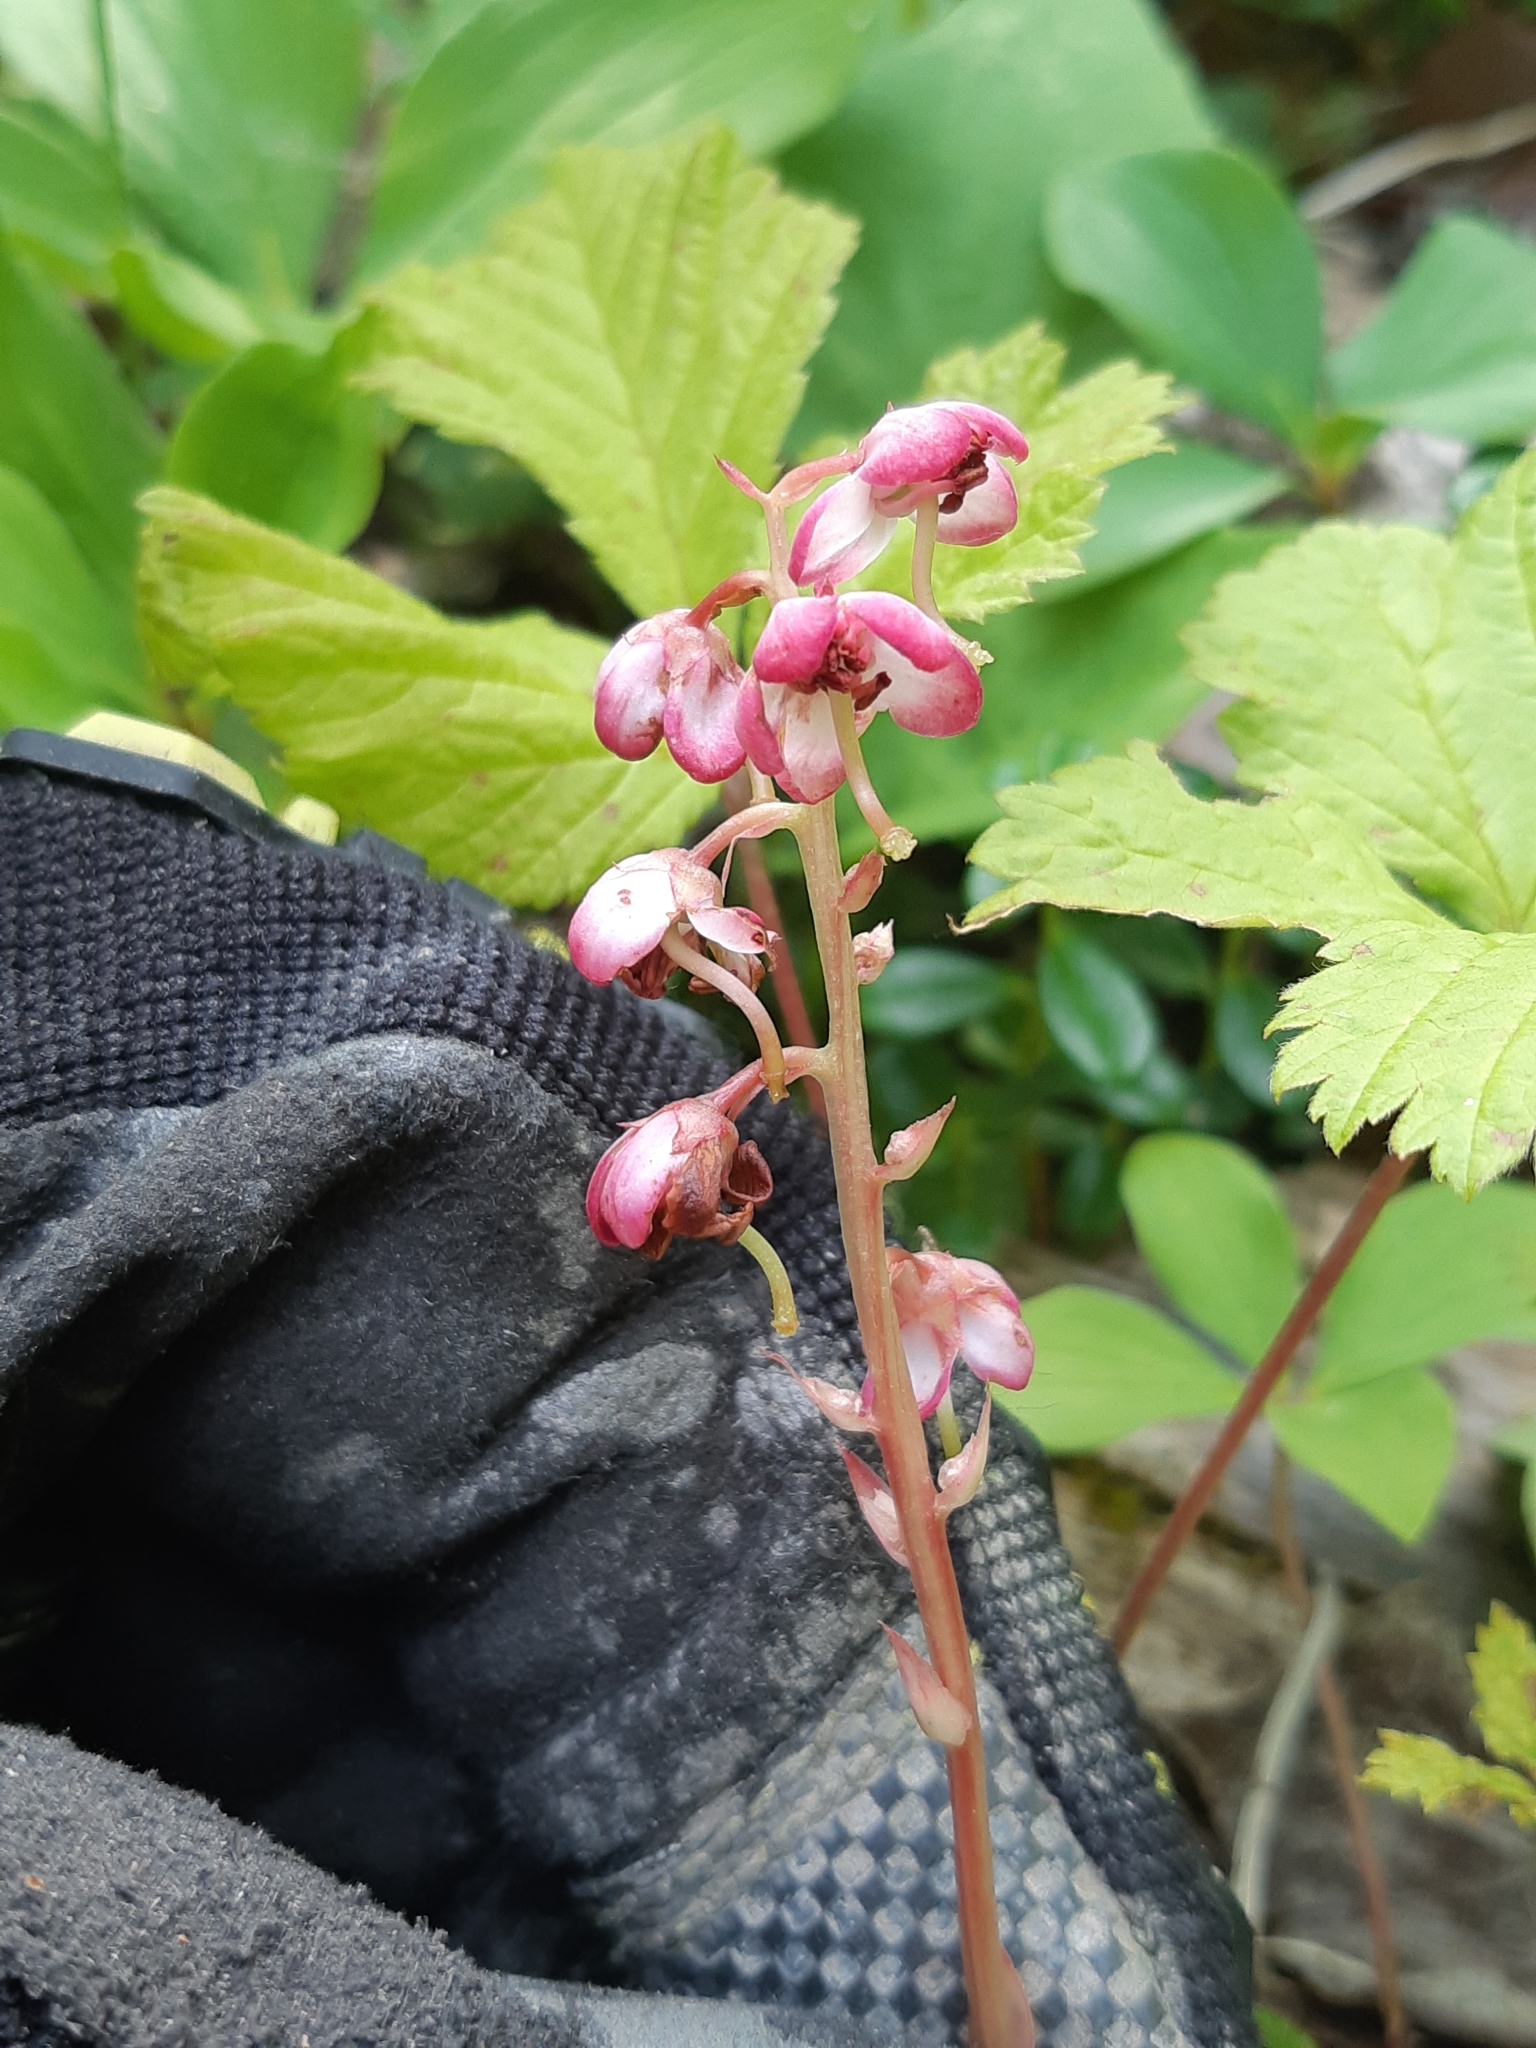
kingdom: Plantae
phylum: Tracheophyta
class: Magnoliopsida
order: Ericales
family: Ericaceae
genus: Pyrola
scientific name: Pyrola asarifolia
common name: Bog wintergreen
